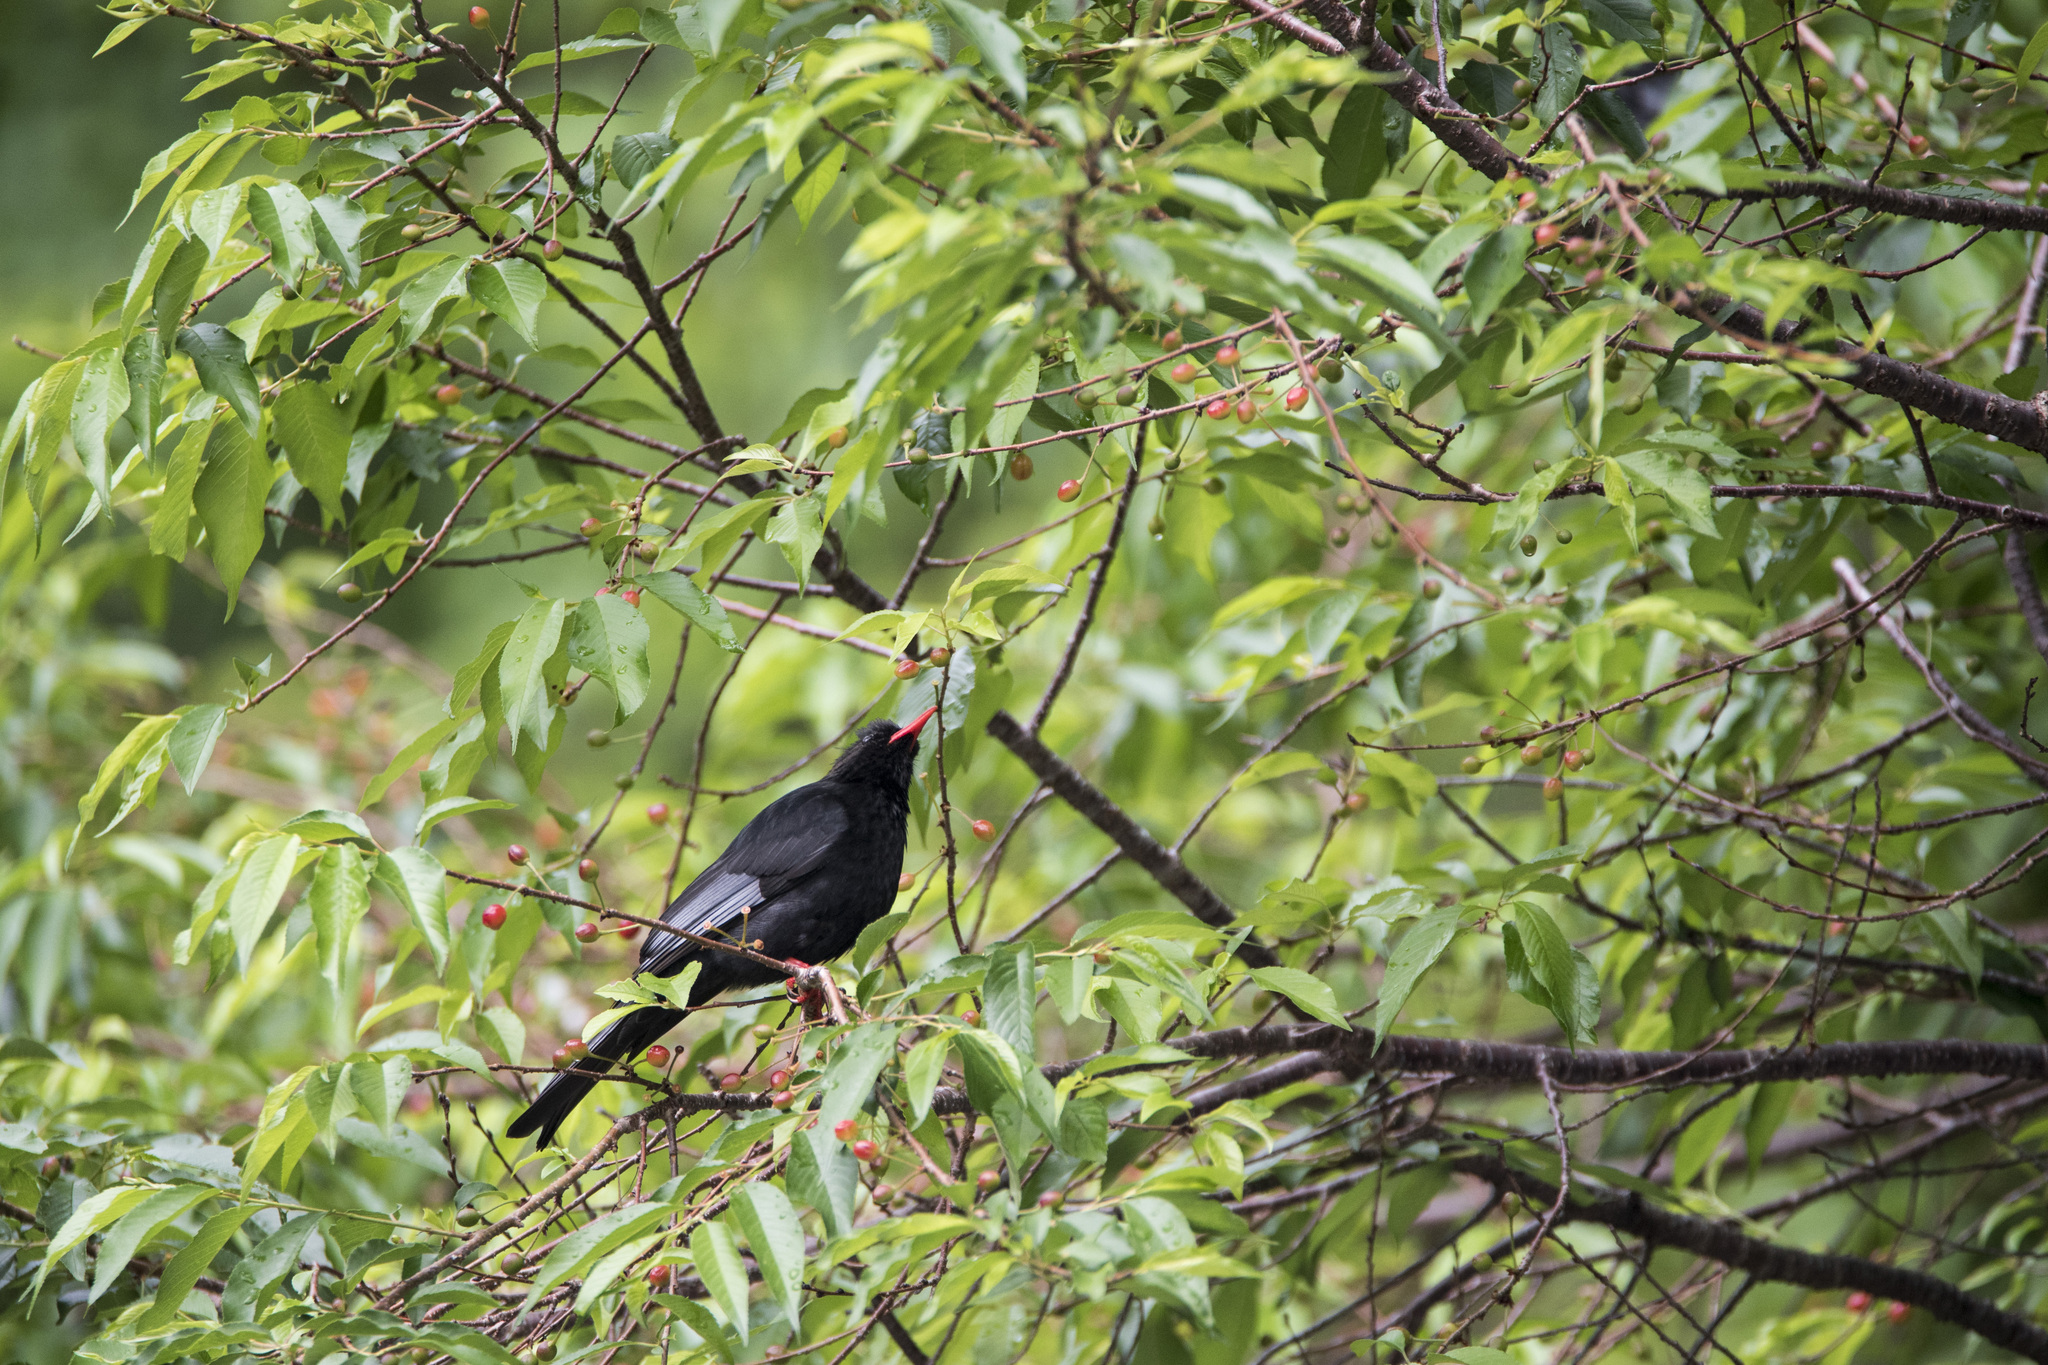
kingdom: Animalia
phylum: Chordata
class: Aves
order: Passeriformes
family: Pycnonotidae
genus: Hypsipetes
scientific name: Hypsipetes leucocephalus
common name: Black bulbul
